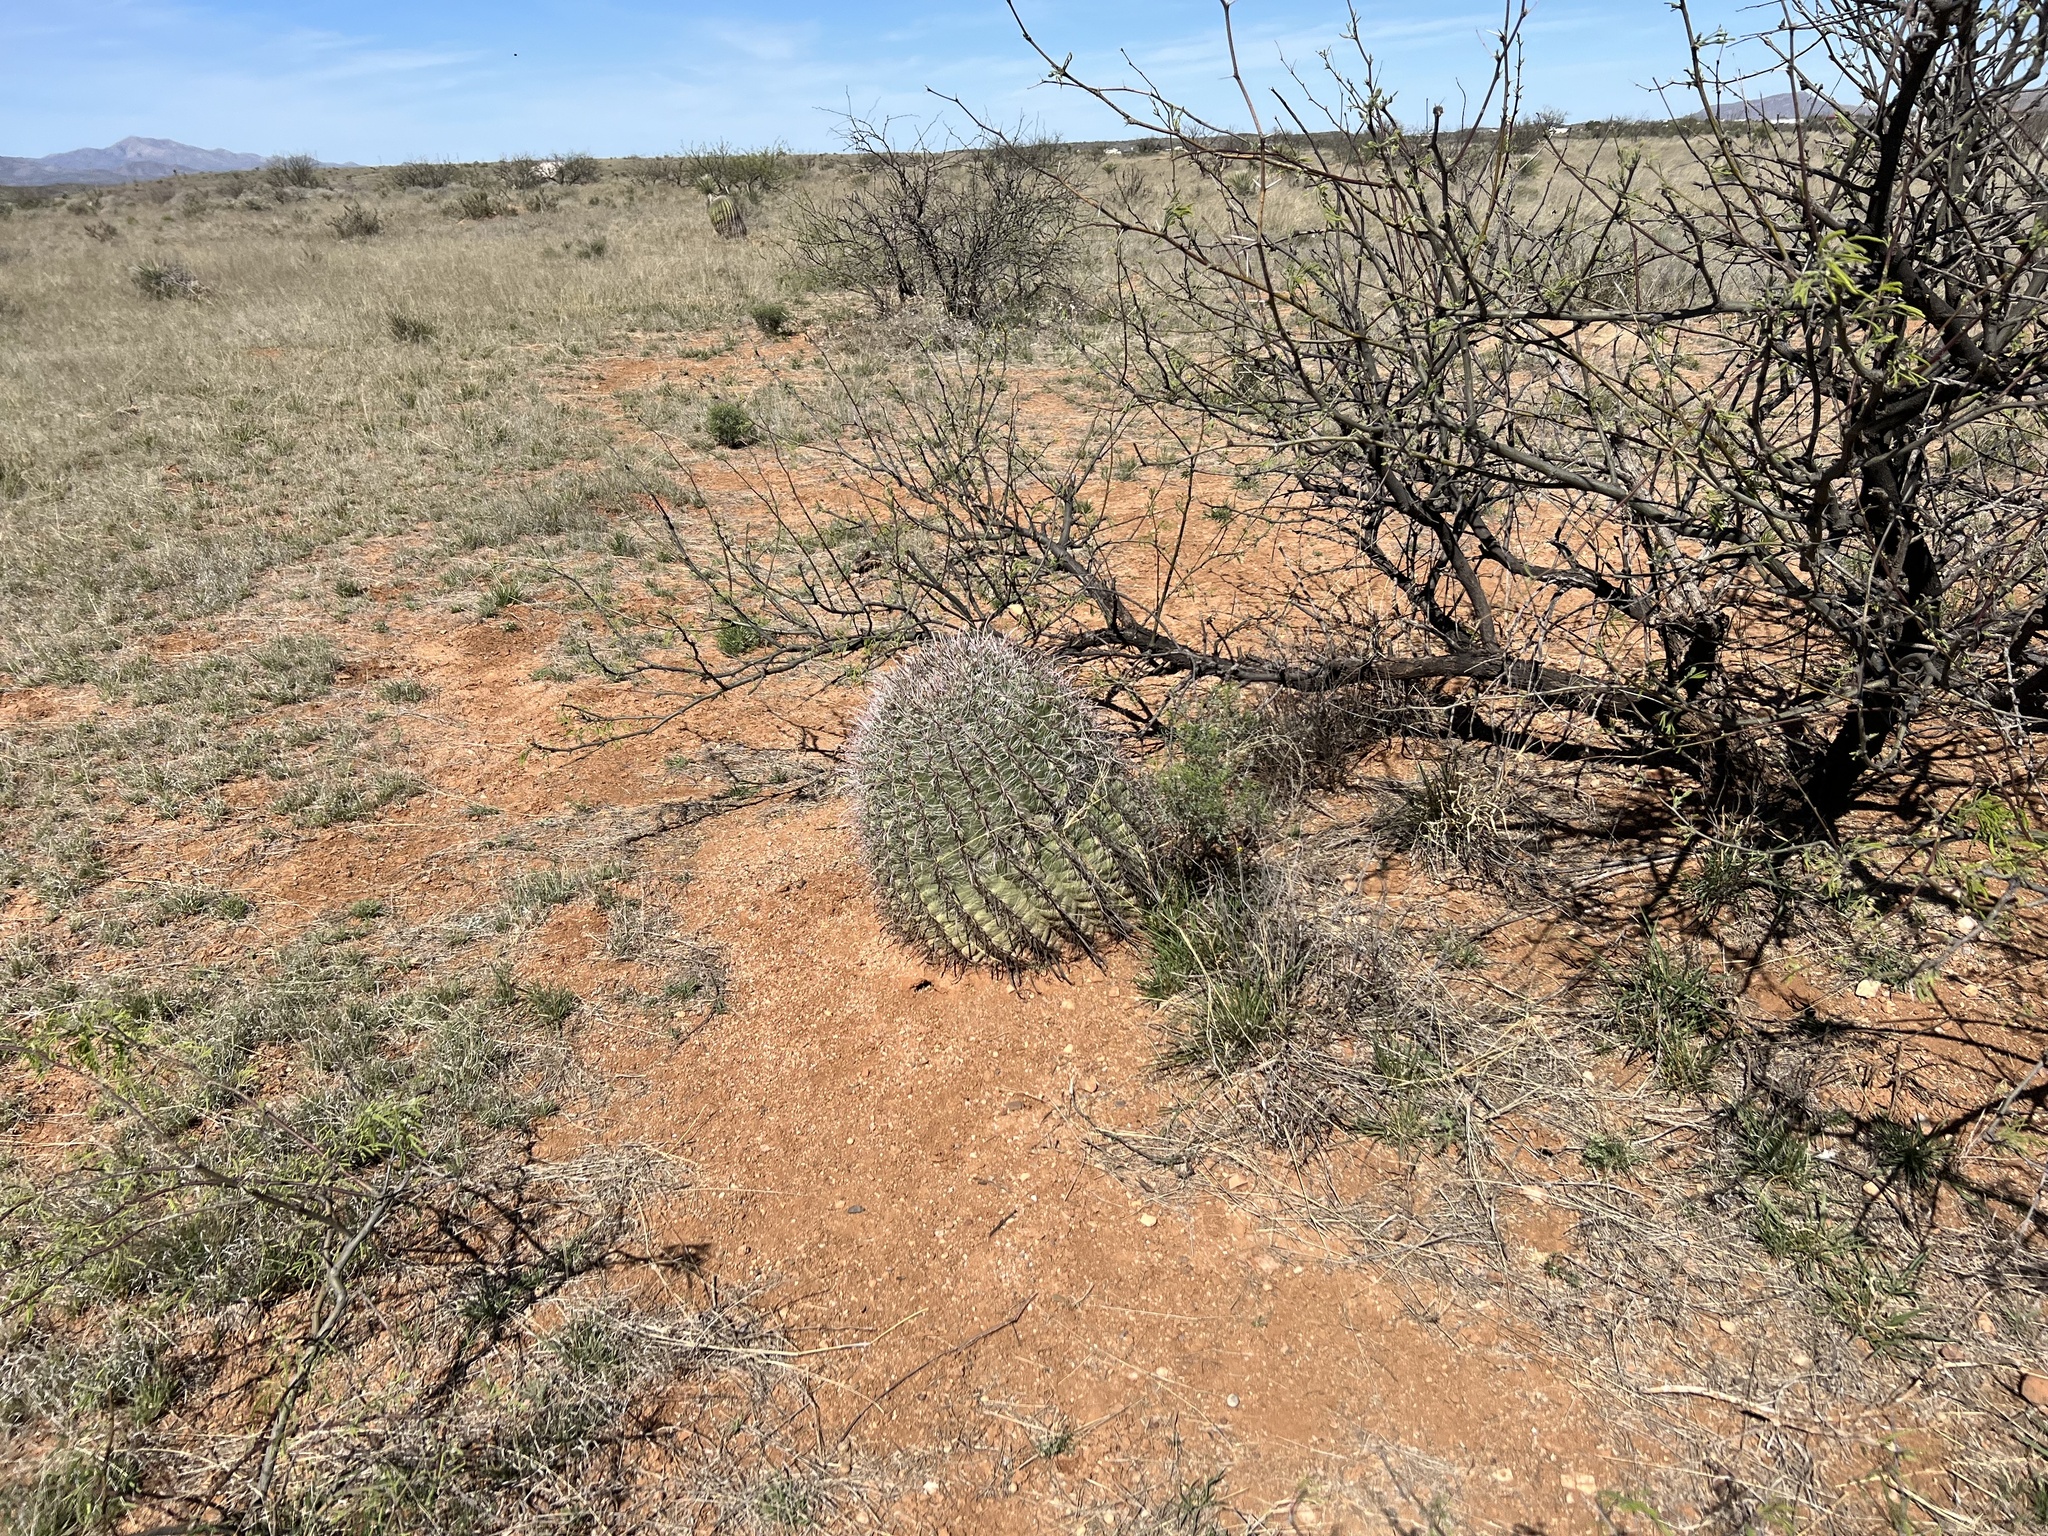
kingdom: Plantae
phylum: Tracheophyta
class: Magnoliopsida
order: Caryophyllales
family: Cactaceae
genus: Ferocactus
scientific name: Ferocactus wislizeni
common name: Candy barrel cactus
